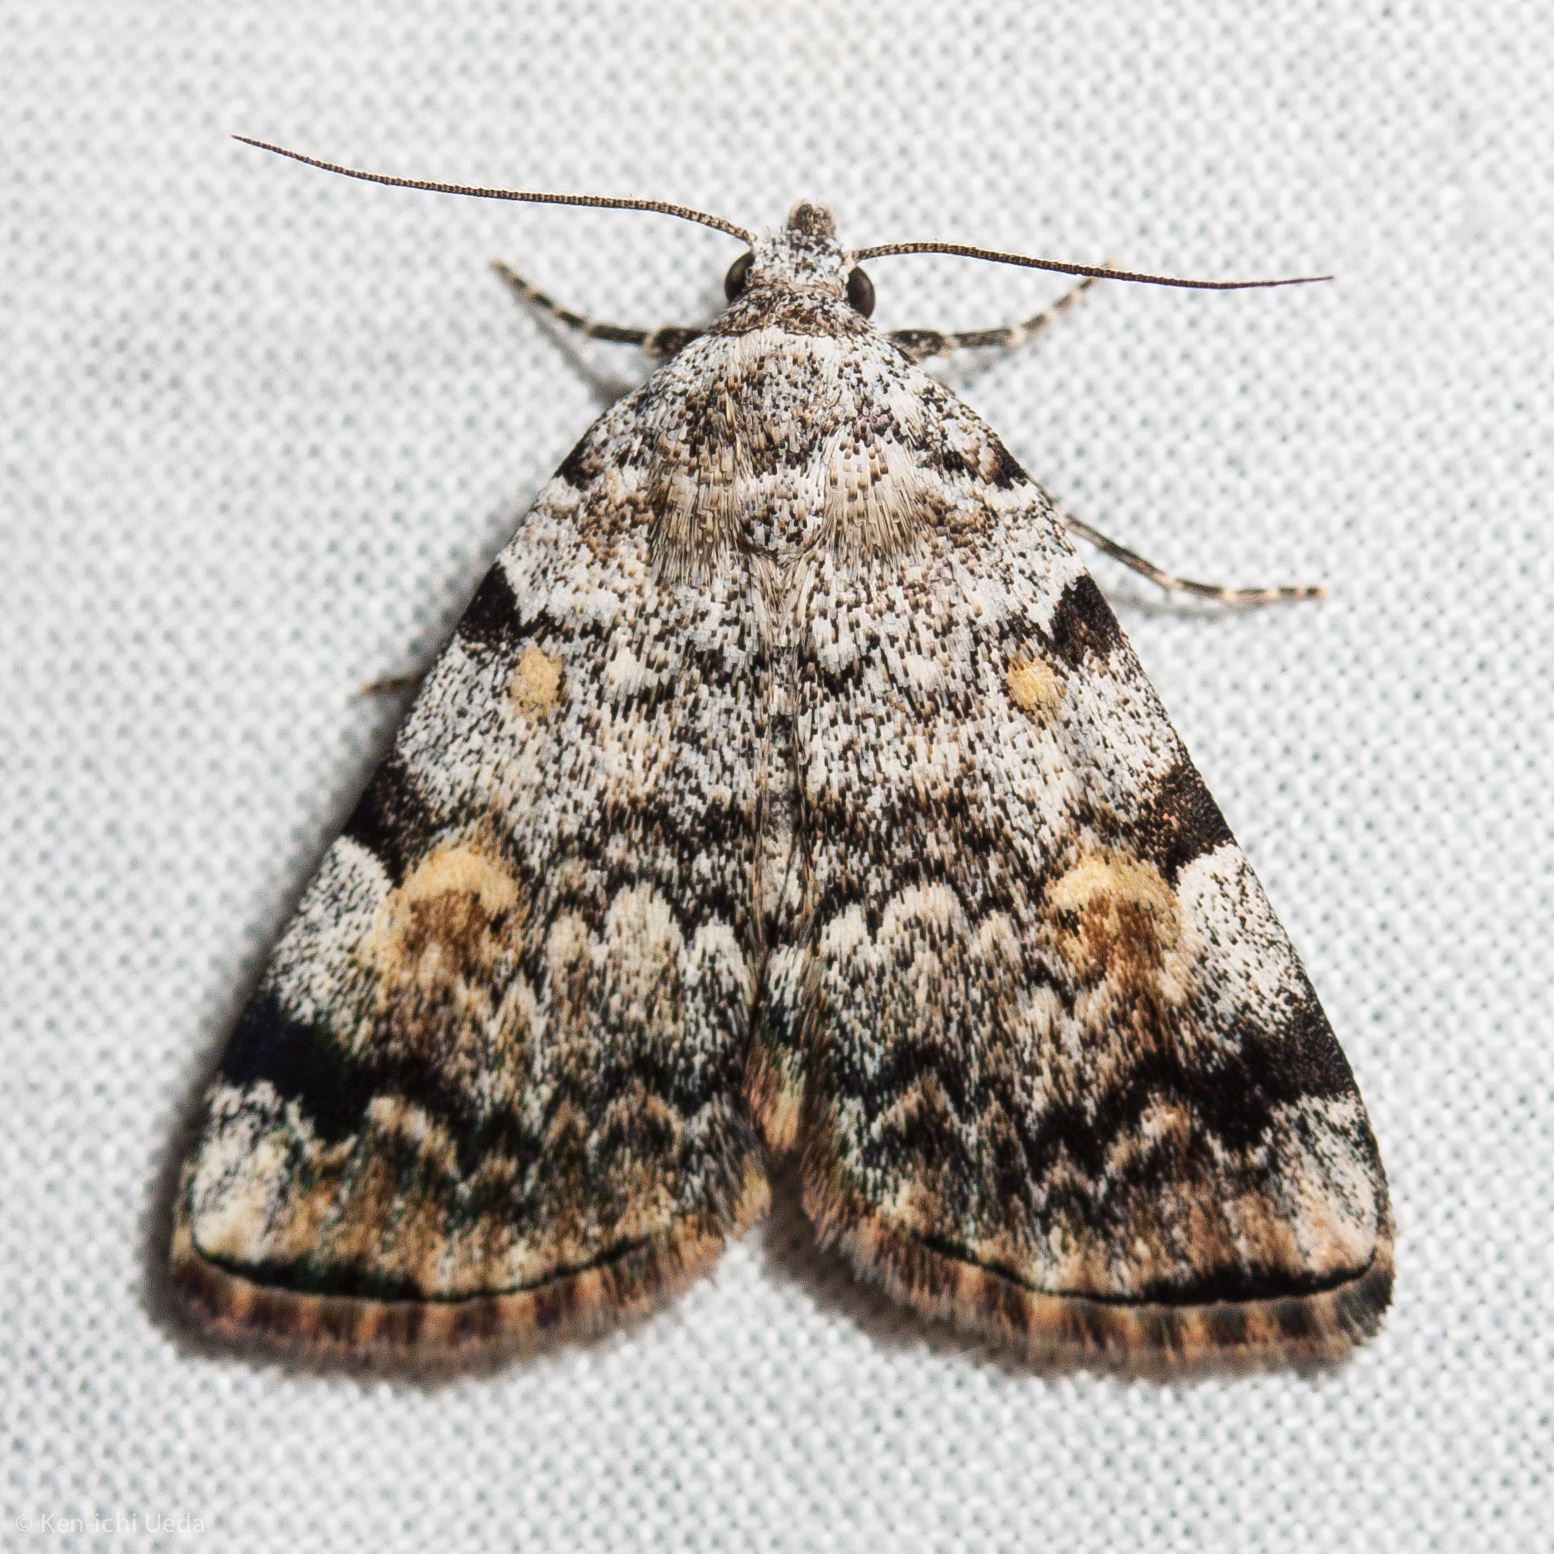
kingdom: Animalia
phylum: Arthropoda
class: Insecta
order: Lepidoptera
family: Erebidae
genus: Idia
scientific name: Idia americalis
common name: American idia moth
